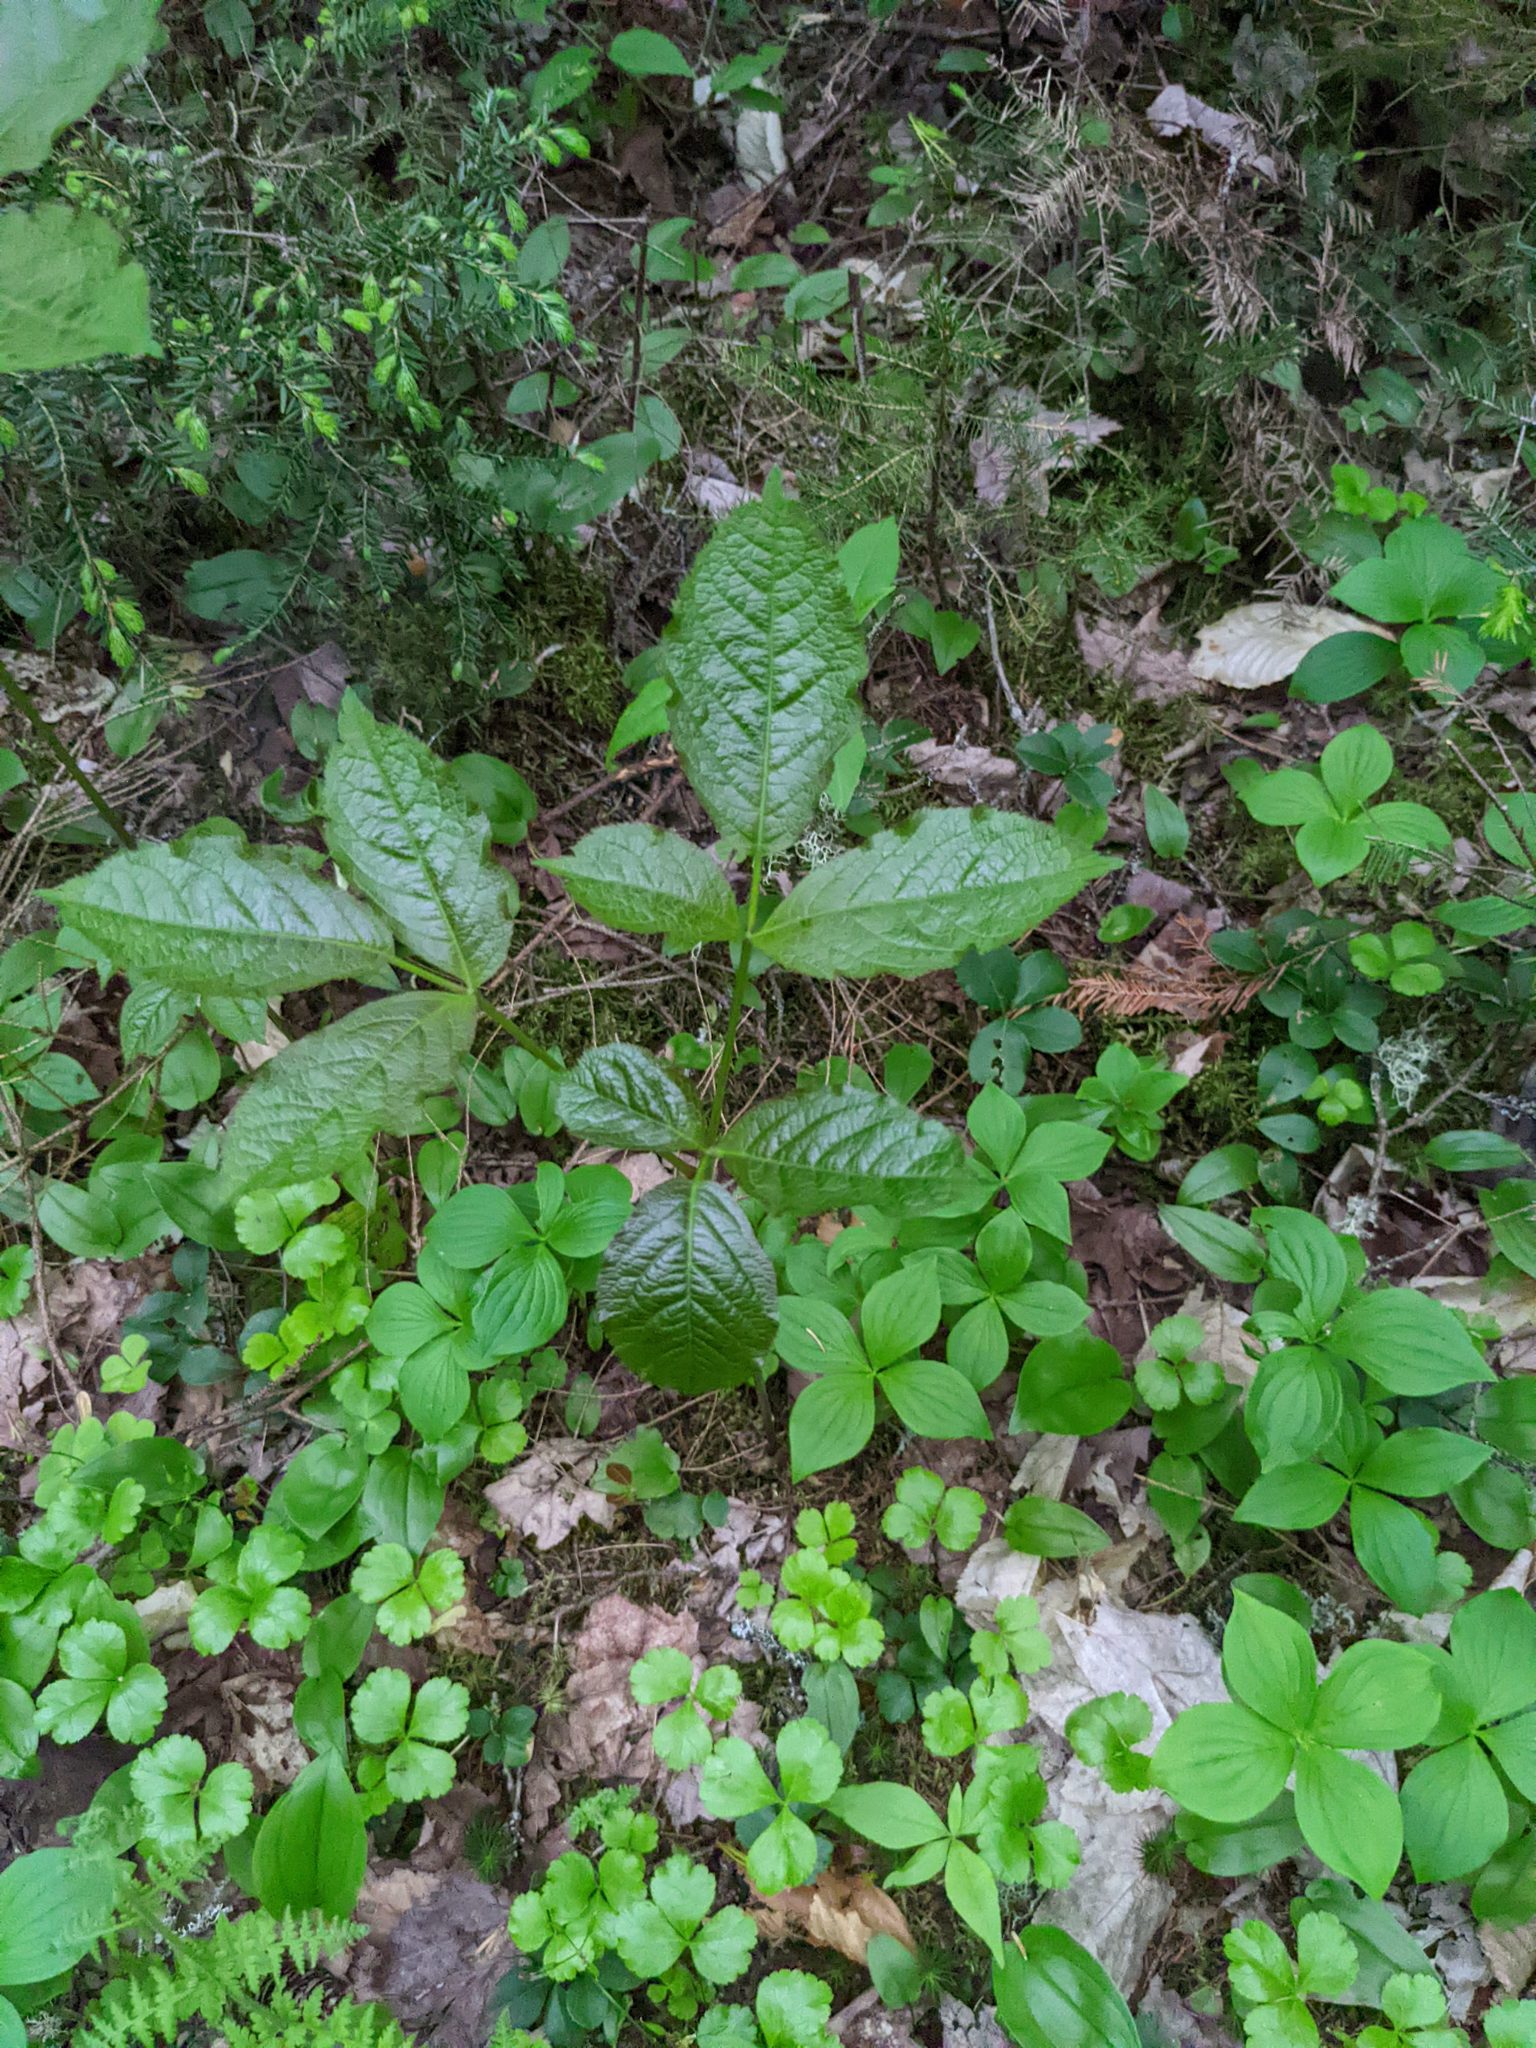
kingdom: Plantae
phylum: Tracheophyta
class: Magnoliopsida
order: Apiales
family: Araliaceae
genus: Aralia
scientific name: Aralia nudicaulis
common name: Wild sarsaparilla
